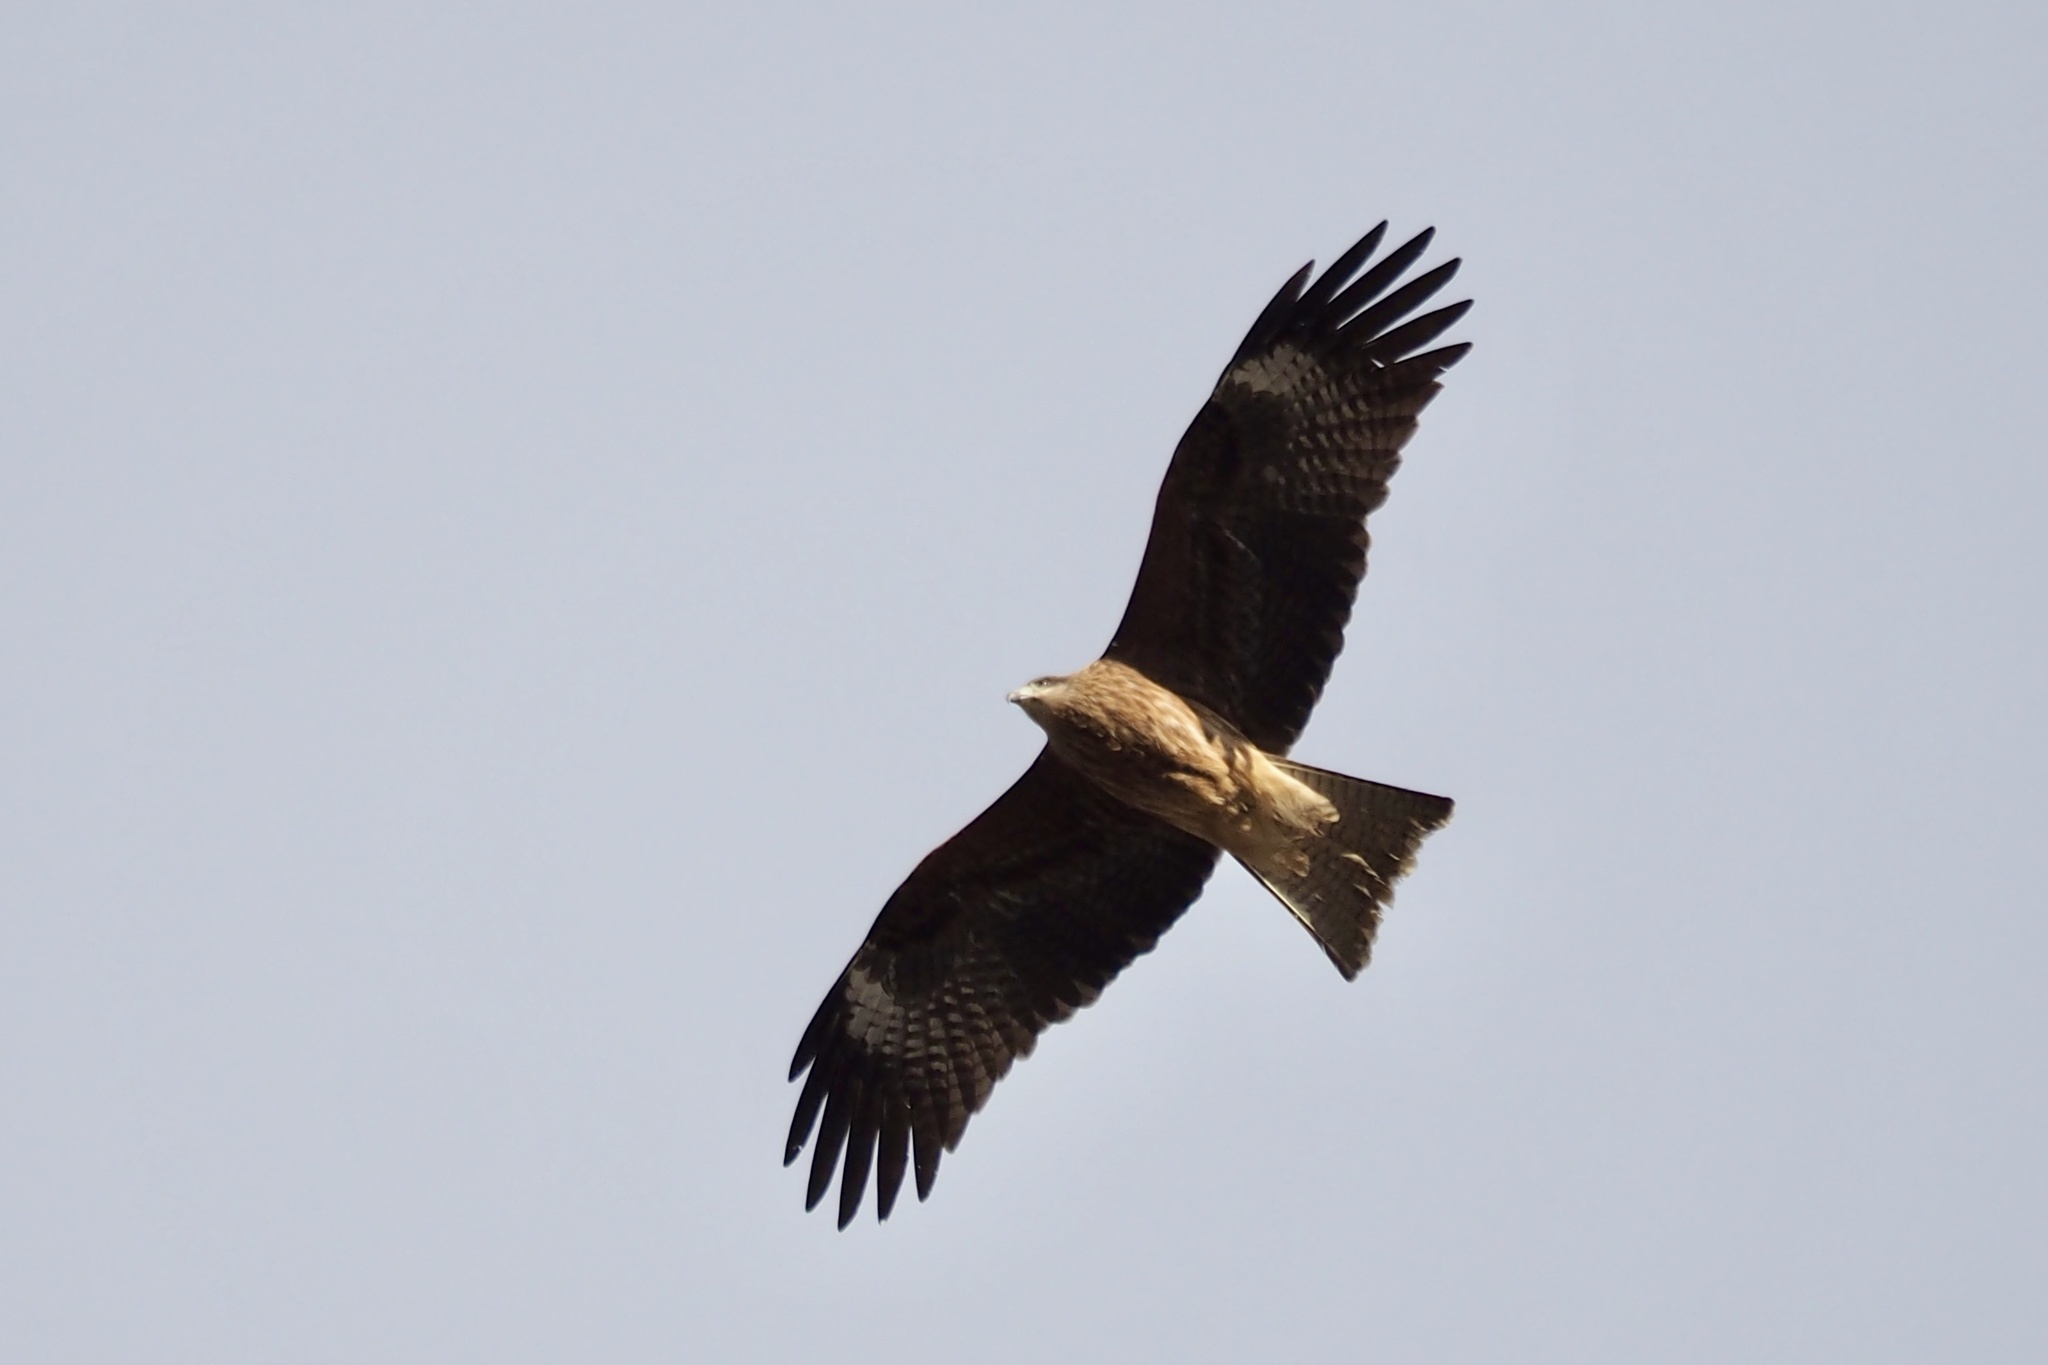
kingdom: Animalia
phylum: Chordata
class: Aves
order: Accipitriformes
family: Accipitridae
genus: Milvus
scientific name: Milvus migrans
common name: Black kite
